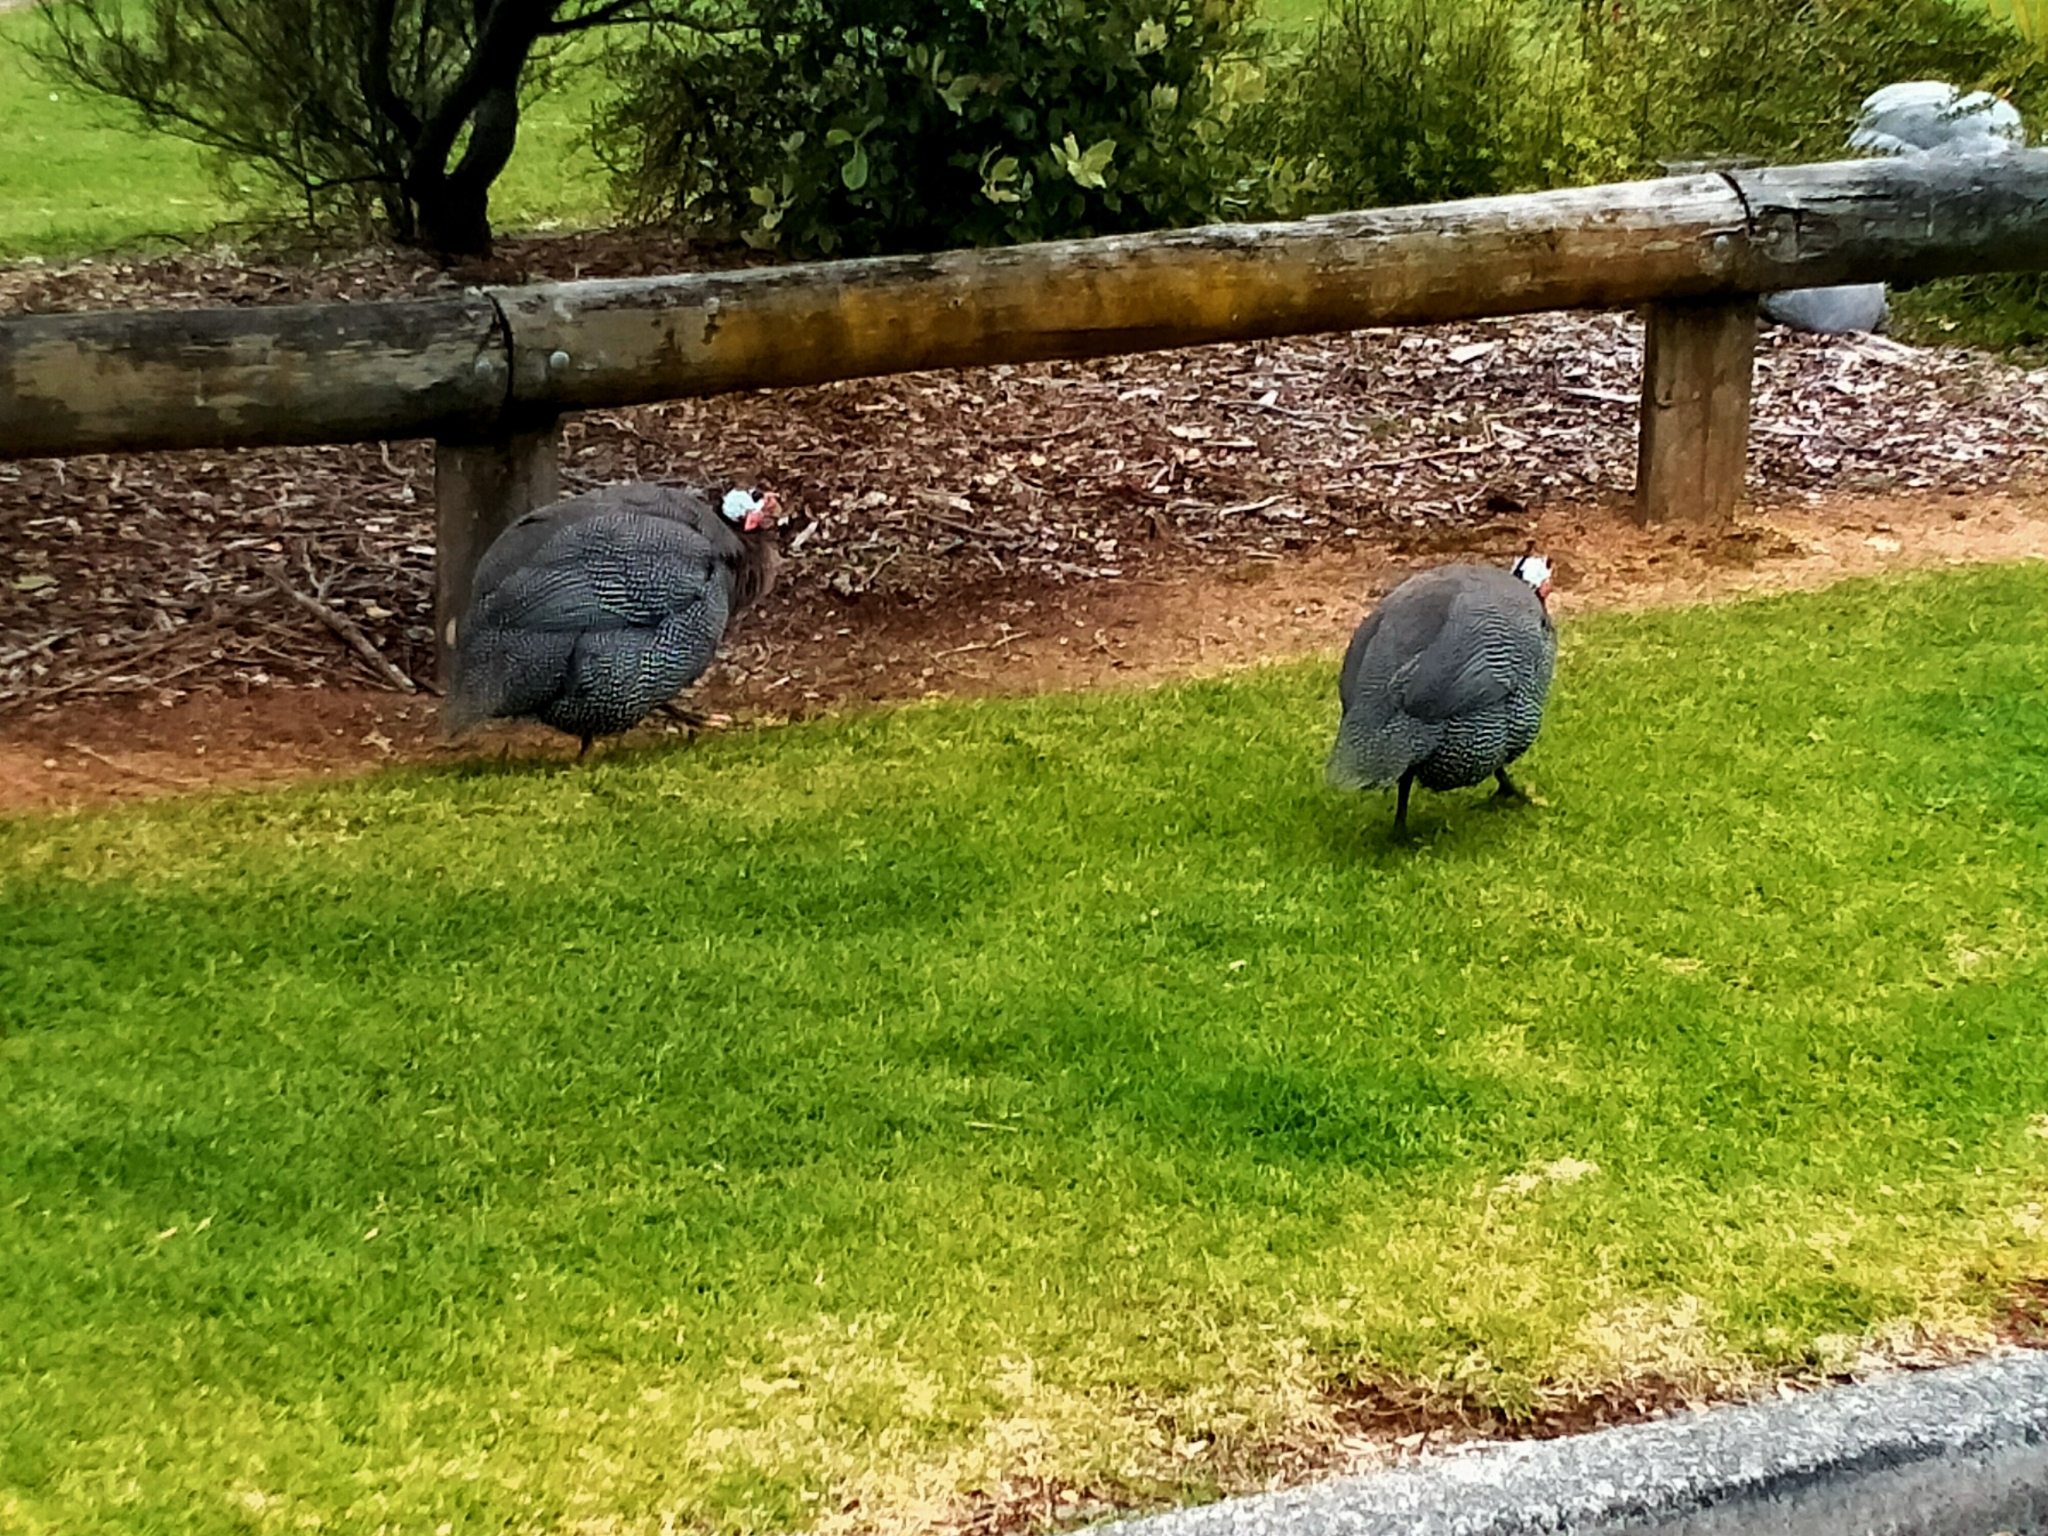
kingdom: Animalia
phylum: Chordata
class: Aves
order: Galliformes
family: Numididae
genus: Numida
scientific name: Numida meleagris
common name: Helmeted guineafowl
